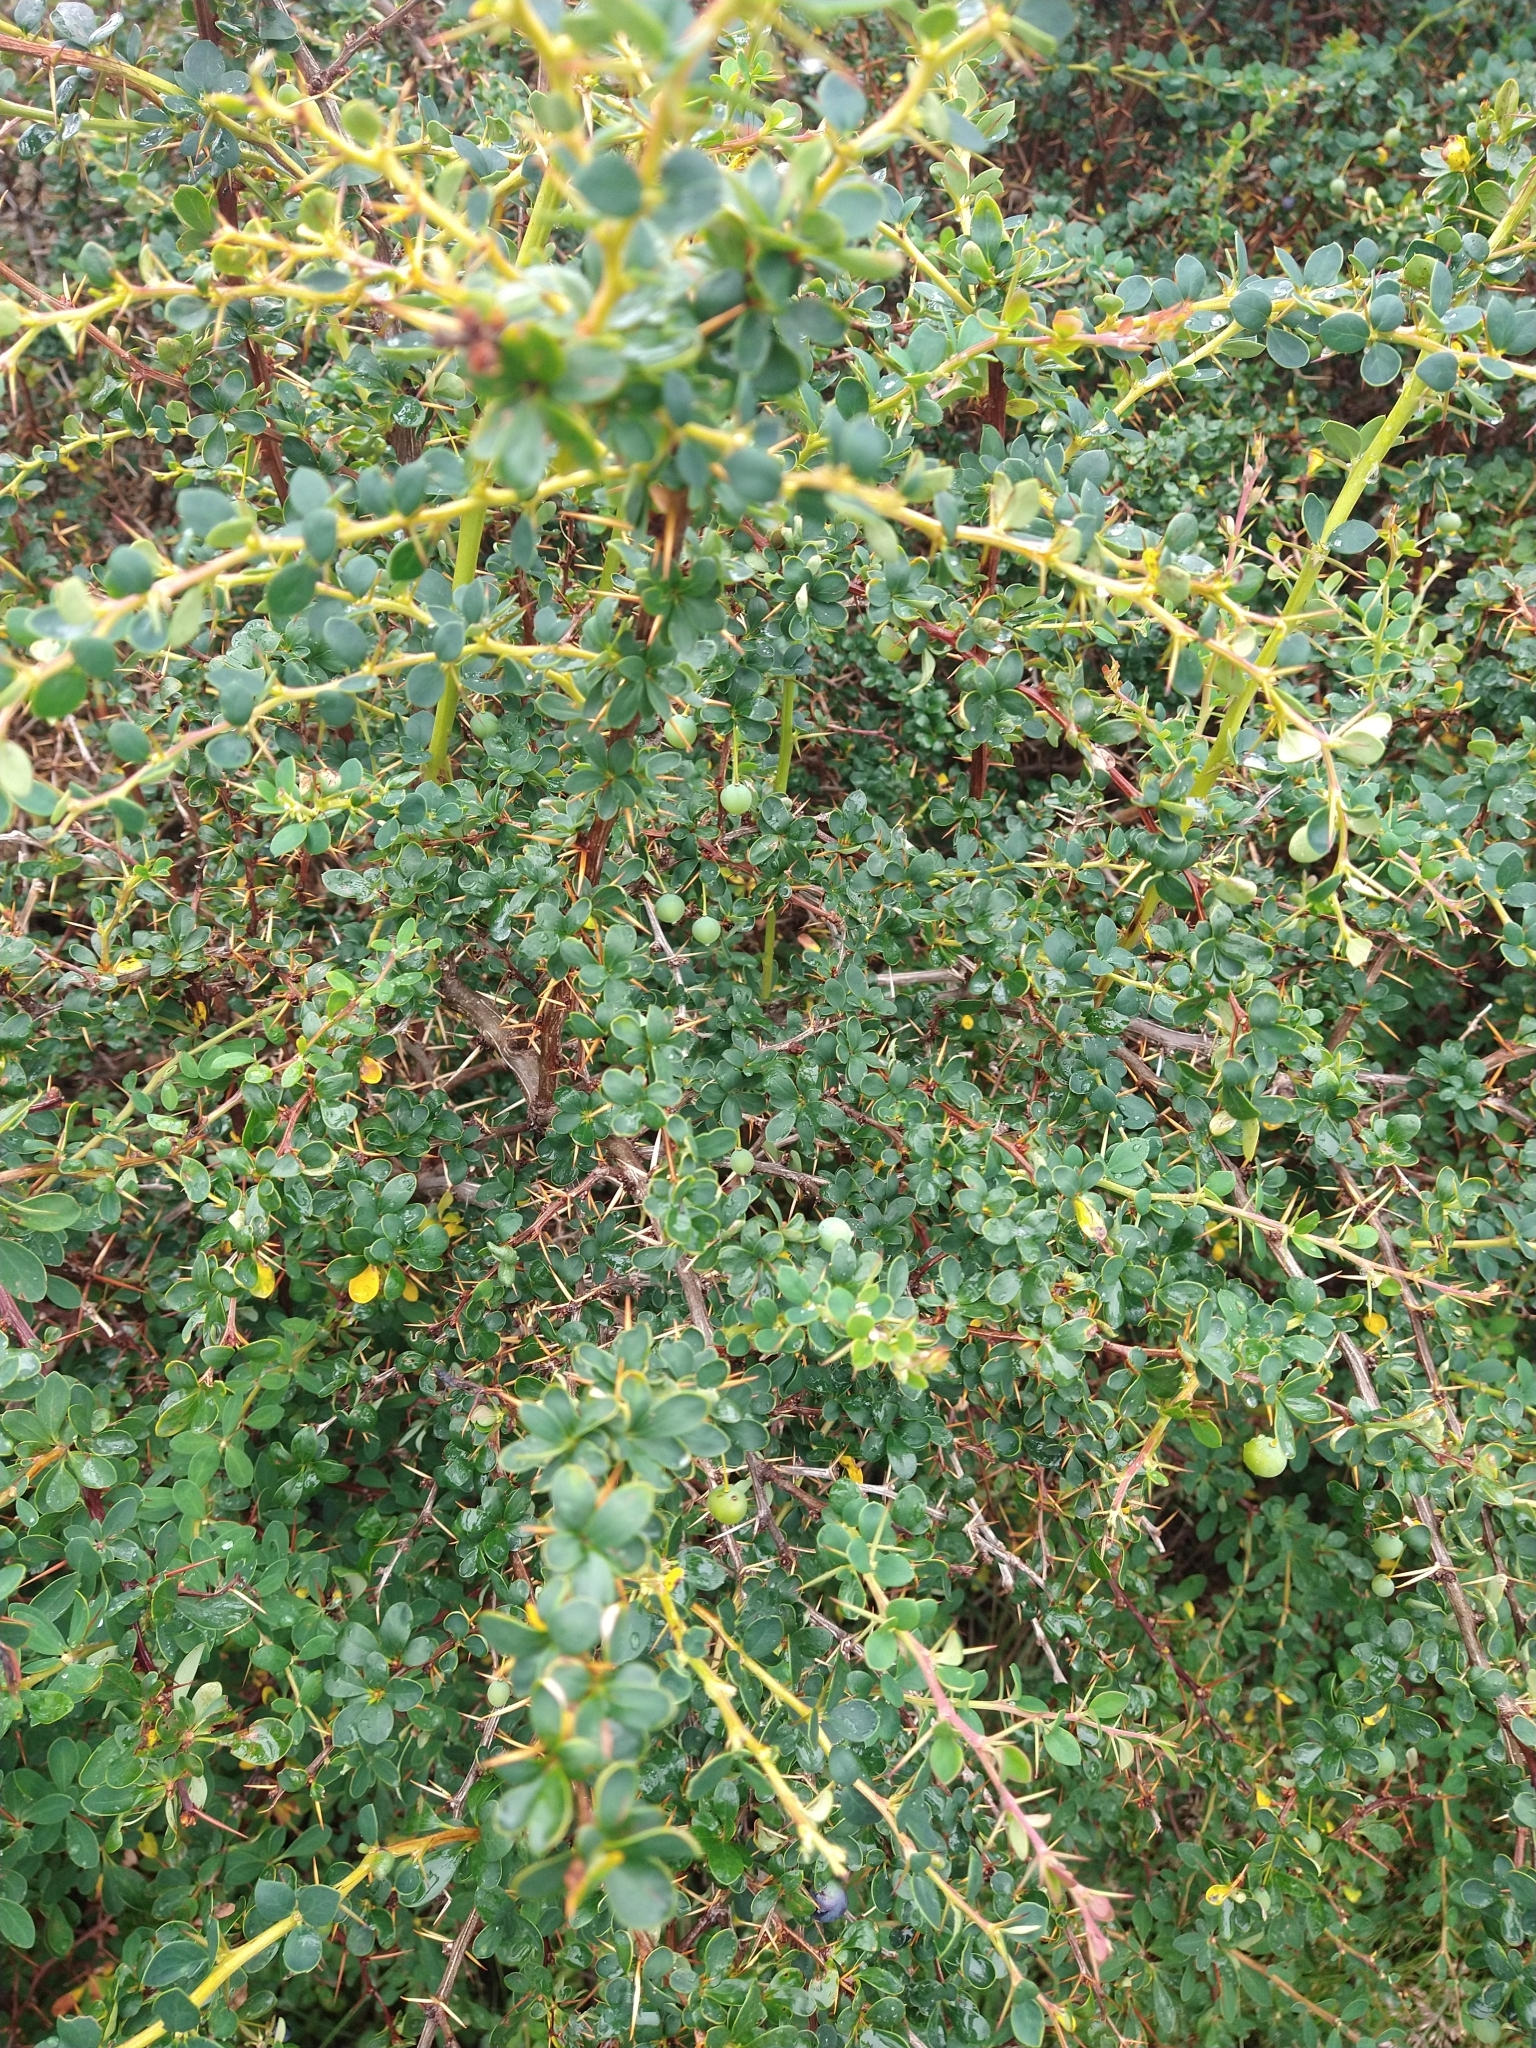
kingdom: Plantae
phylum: Tracheophyta
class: Magnoliopsida
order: Ranunculales
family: Berberidaceae
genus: Berberis
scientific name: Berberis microphylla
